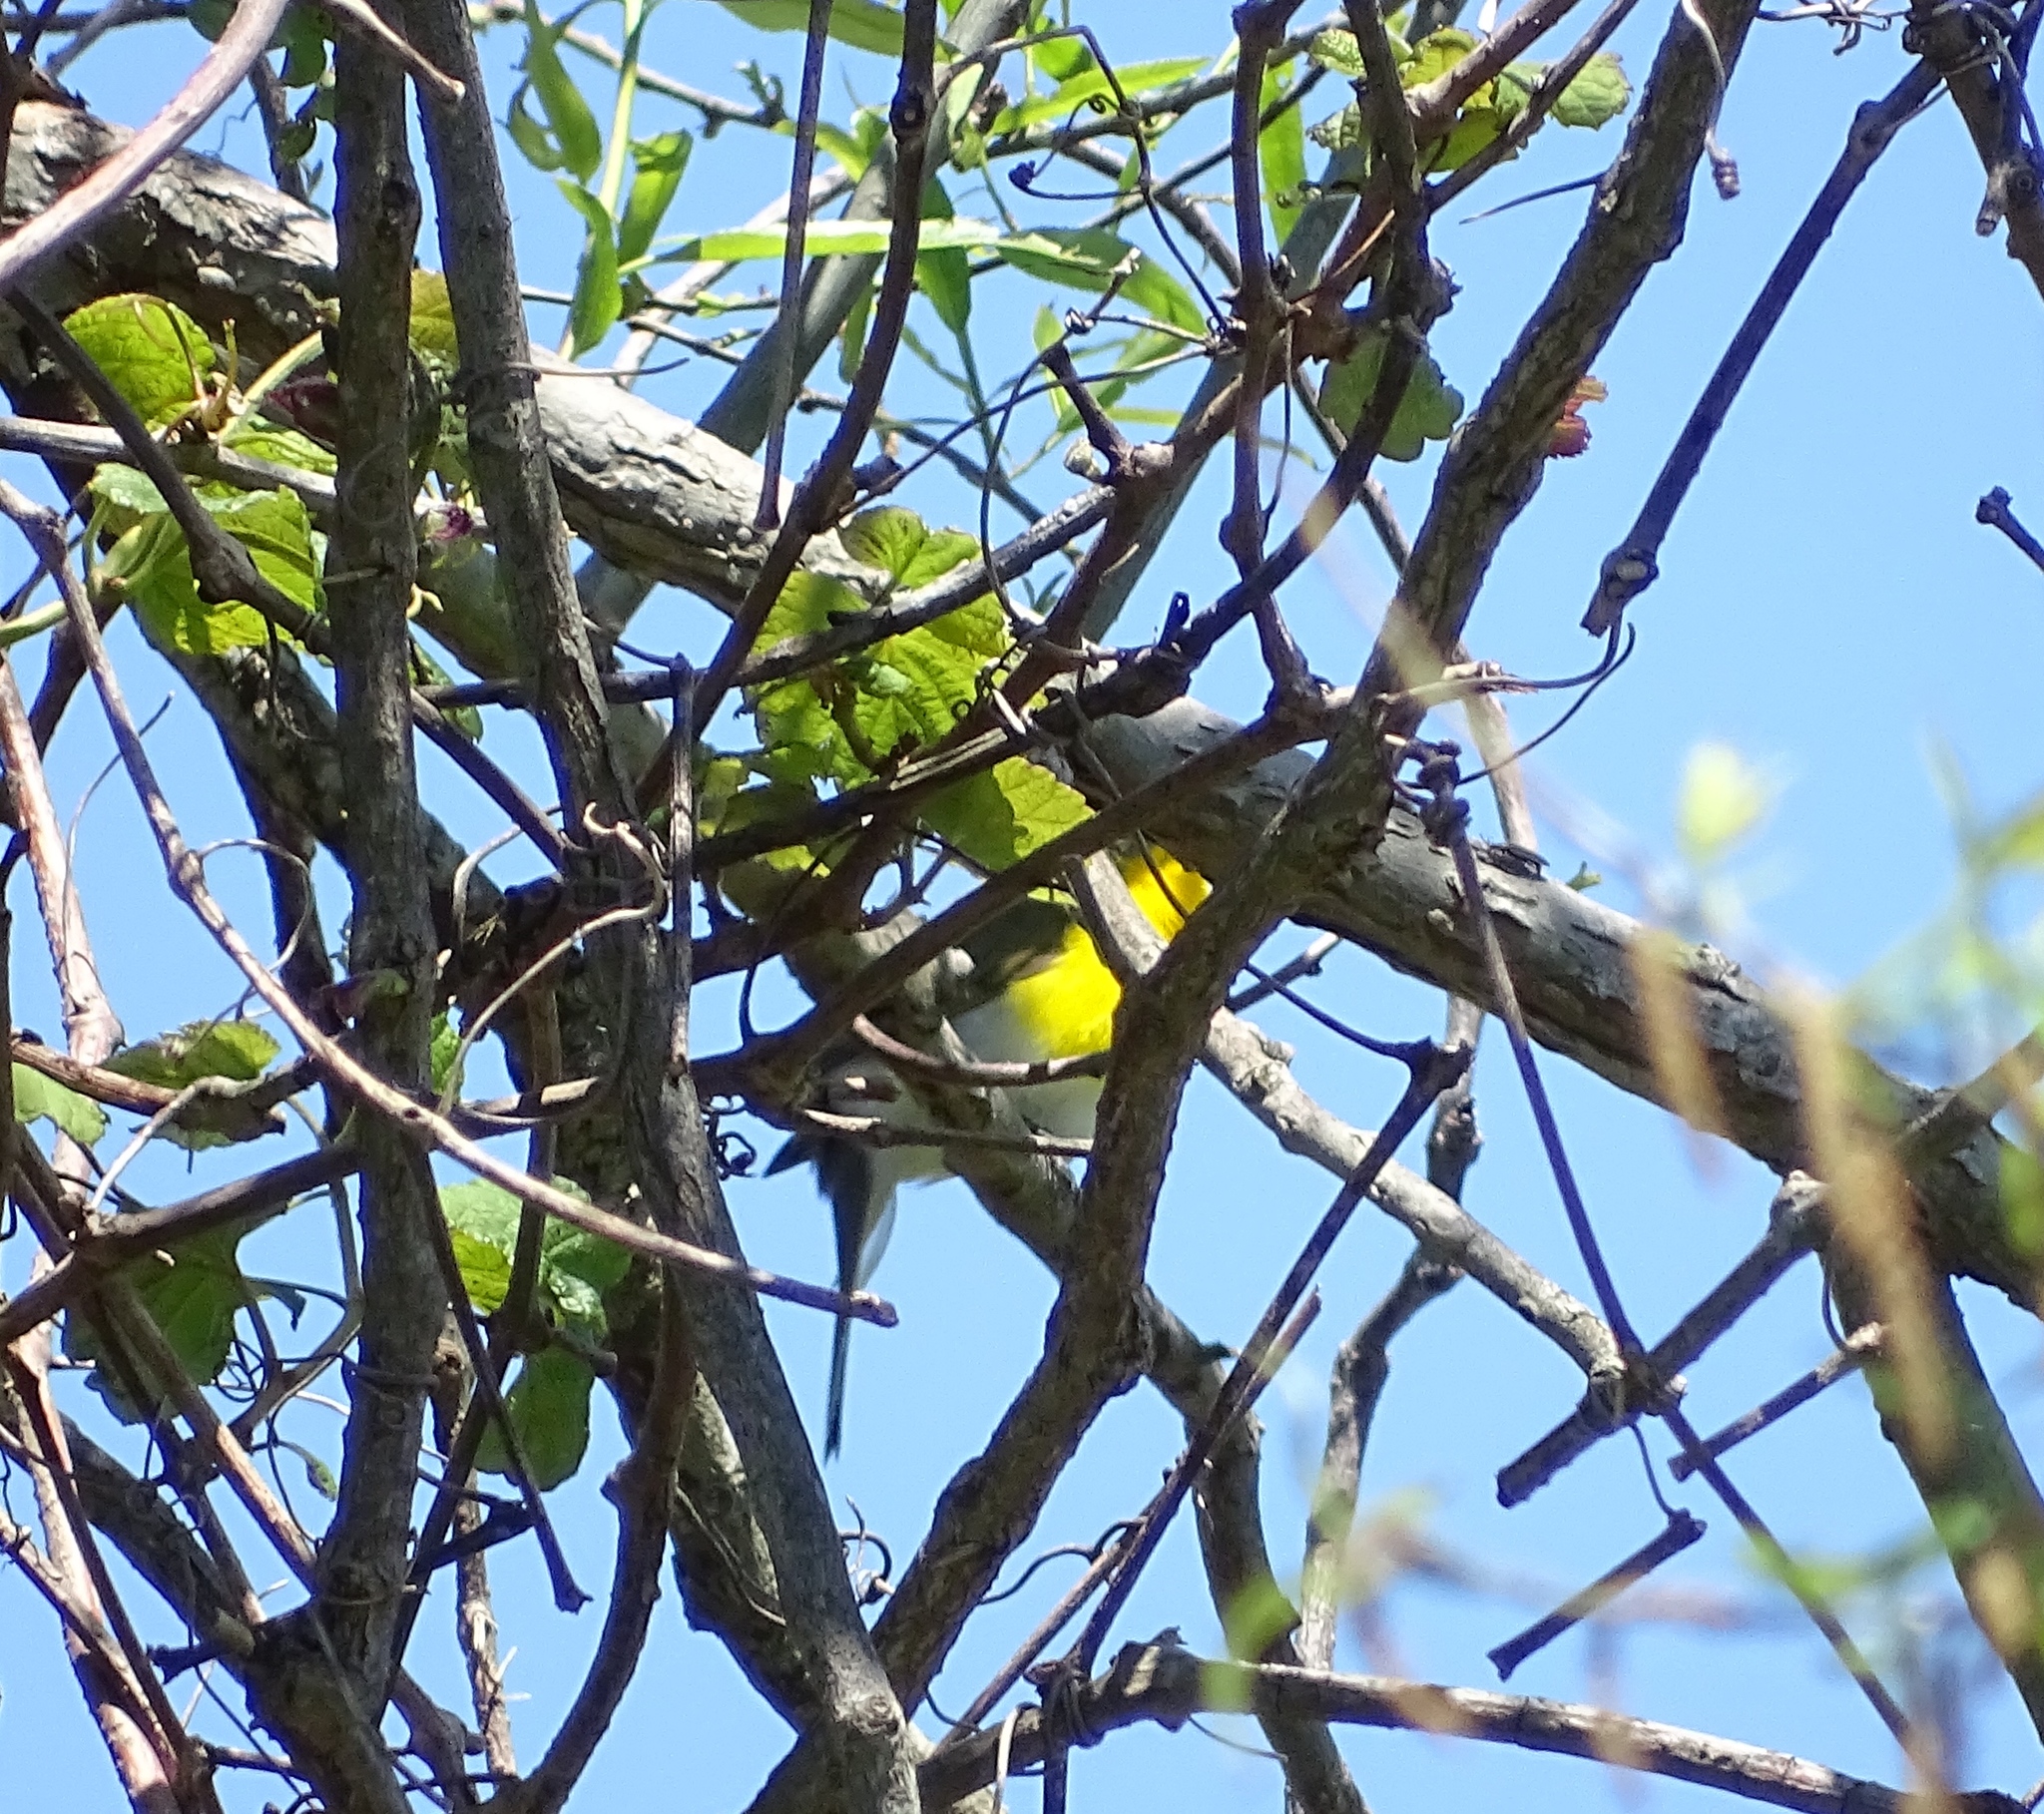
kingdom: Animalia
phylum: Chordata
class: Aves
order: Passeriformes
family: Parulidae
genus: Icteria
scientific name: Icteria virens
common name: Yellow-breasted chat
